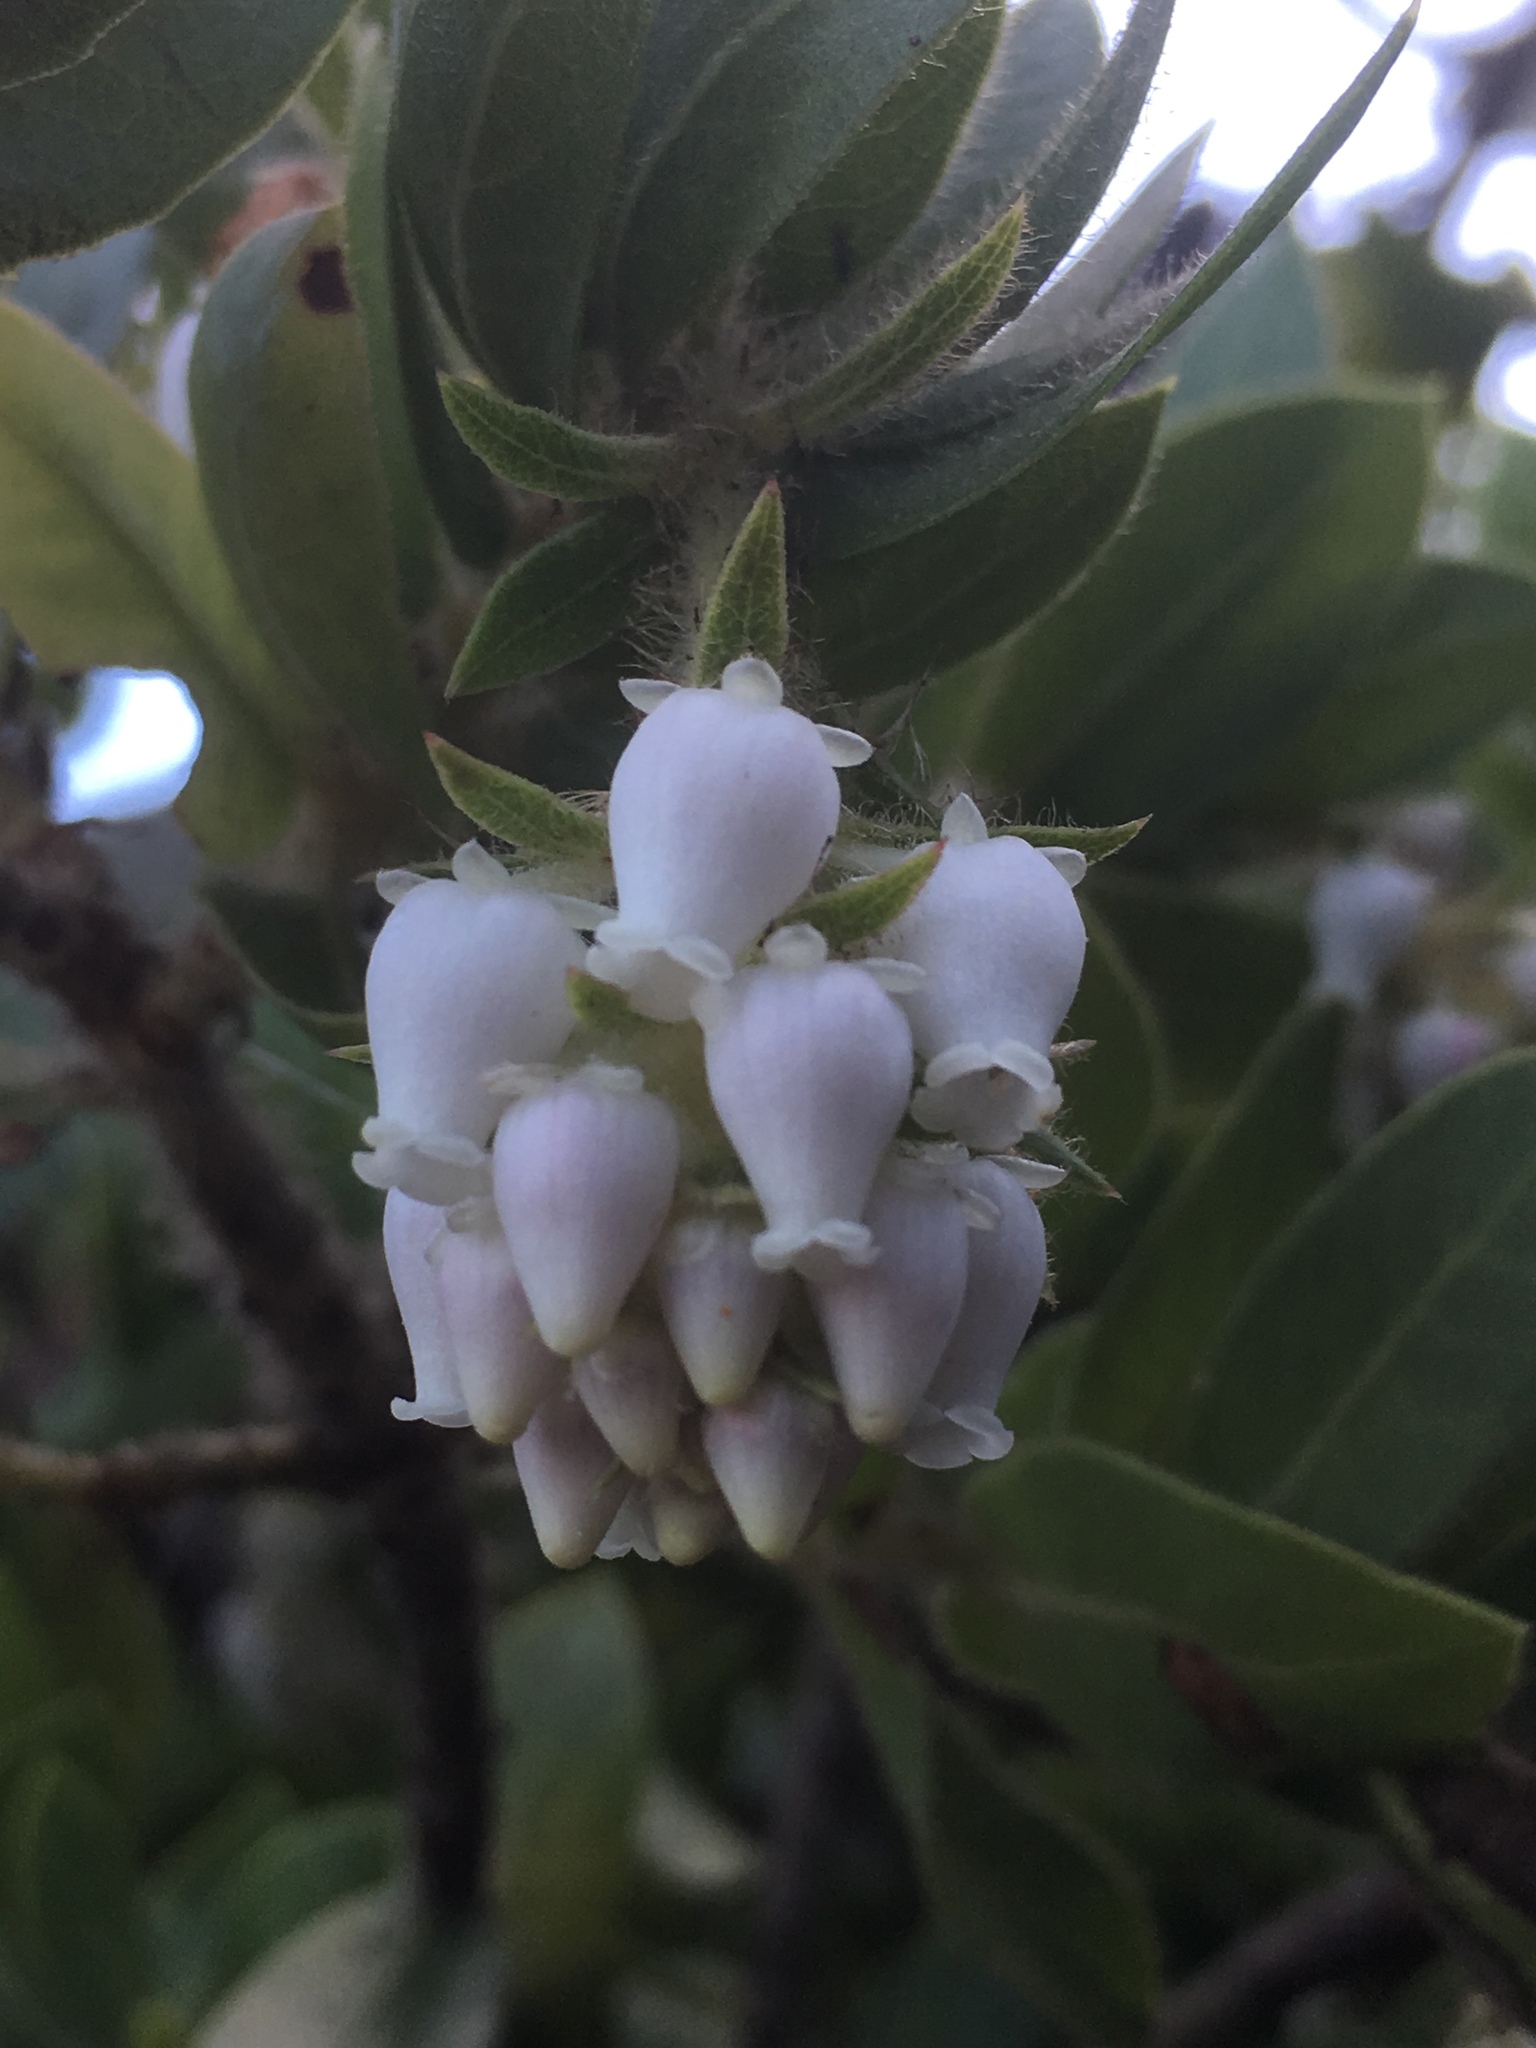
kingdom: Plantae
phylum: Tracheophyta
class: Magnoliopsida
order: Ericales
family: Ericaceae
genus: Arctostaphylos
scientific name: Arctostaphylos montaraensis
